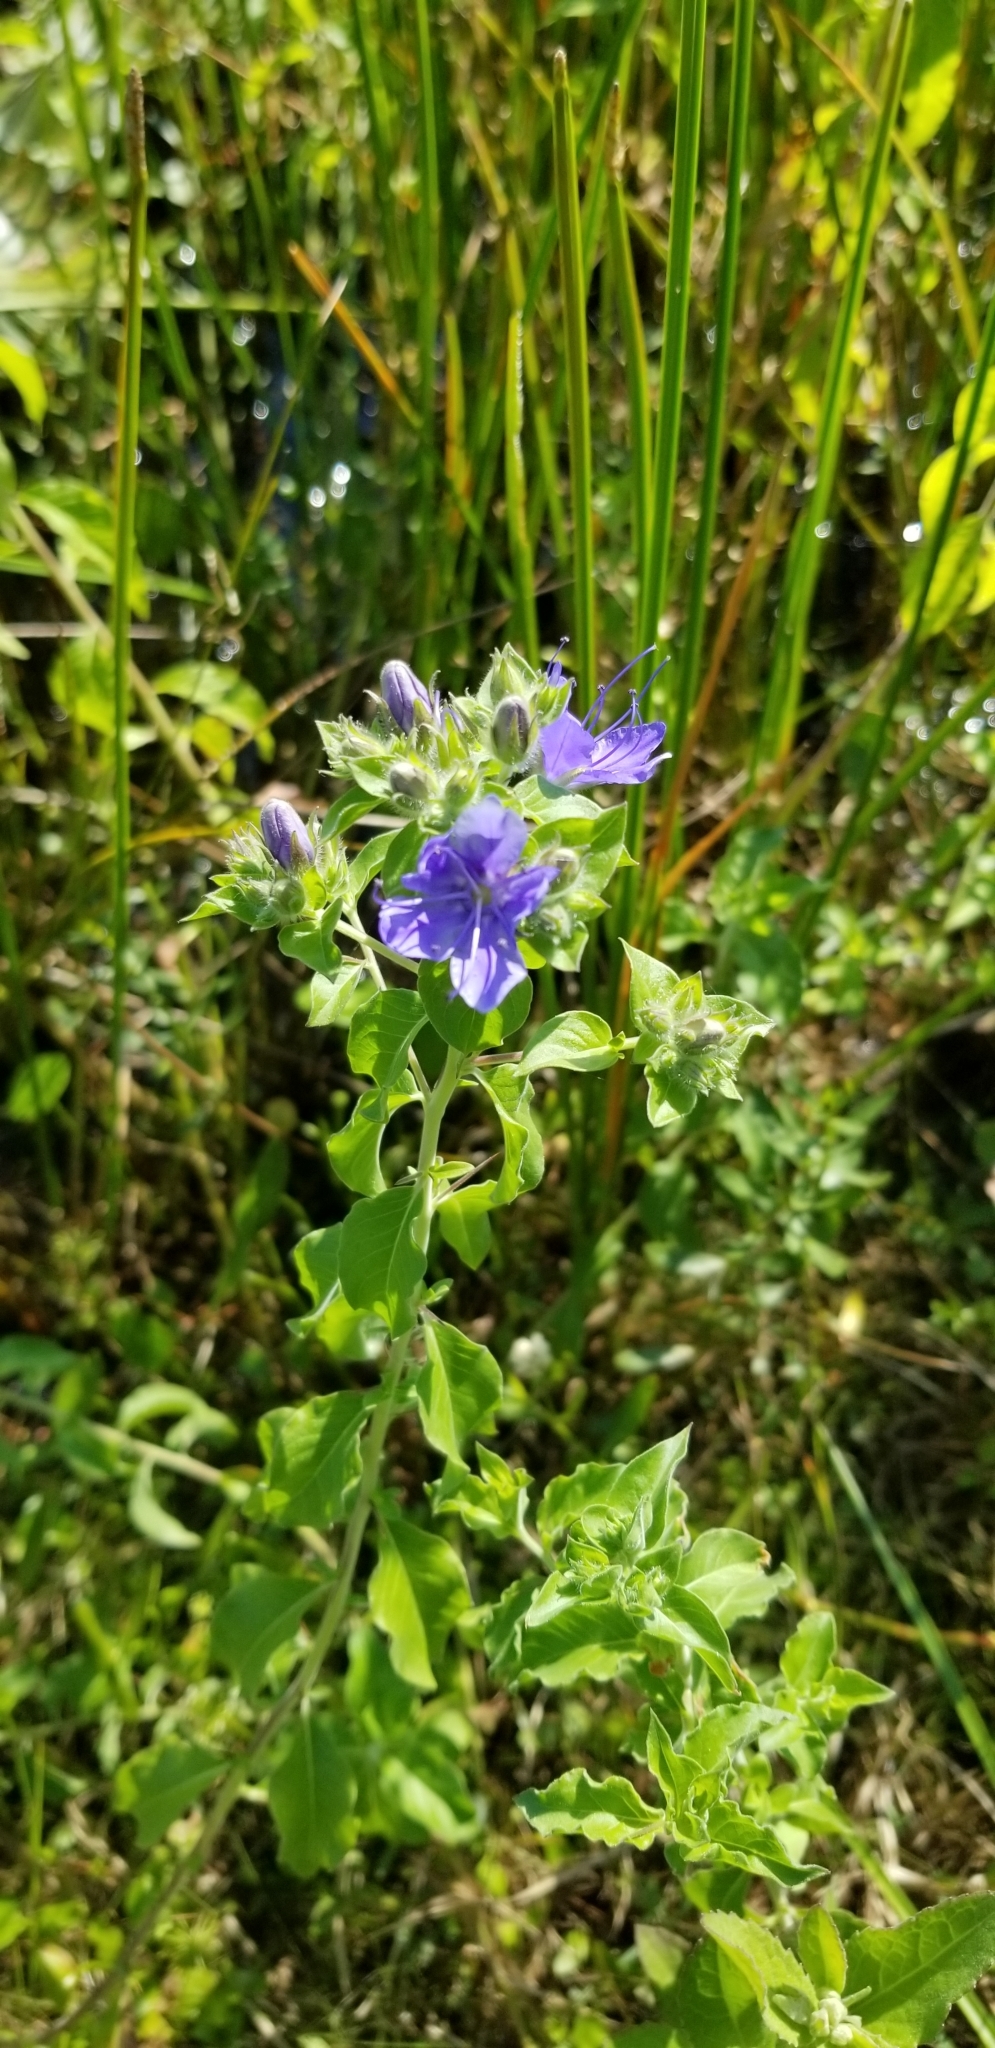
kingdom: Plantae
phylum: Tracheophyta
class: Magnoliopsida
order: Solanales
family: Hydroleaceae
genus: Hydrolea
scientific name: Hydrolea ovata
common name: Ovate false fiddleleaf
